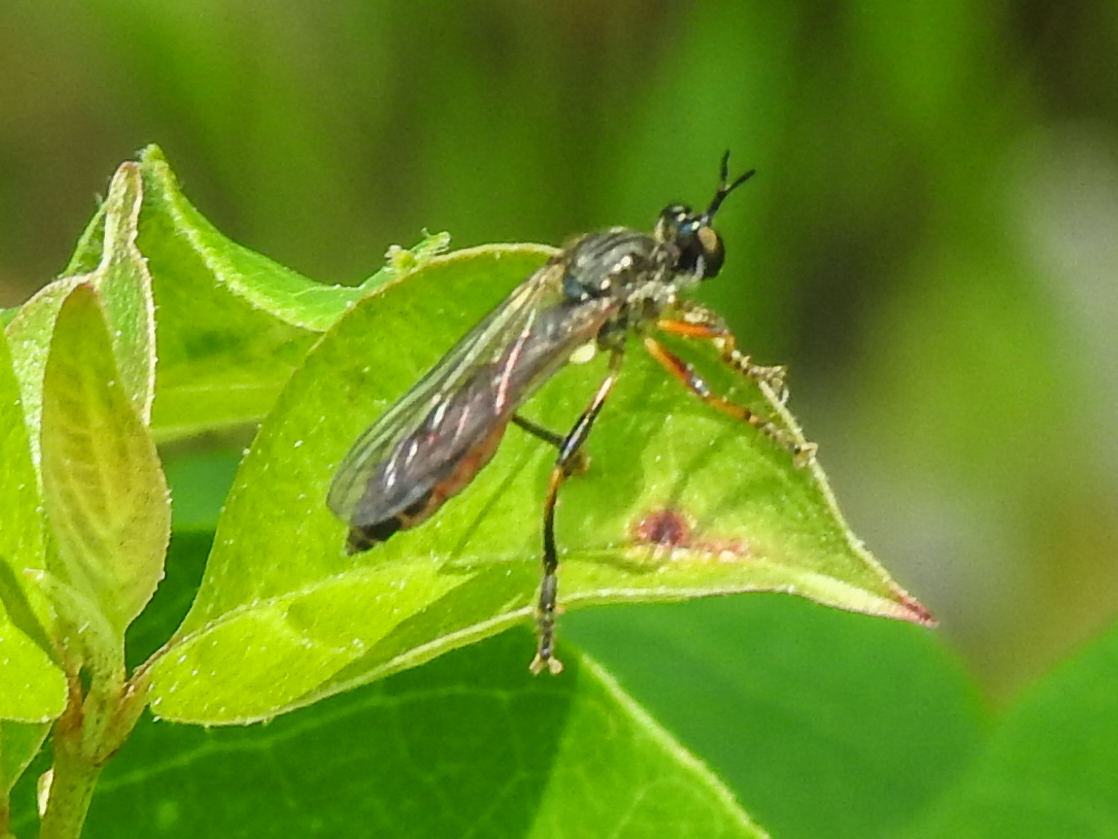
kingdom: Animalia
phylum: Arthropoda
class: Insecta
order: Diptera
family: Asilidae
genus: Dioctria
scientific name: Dioctria hyalipennis
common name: Stripe-legged robberfly
